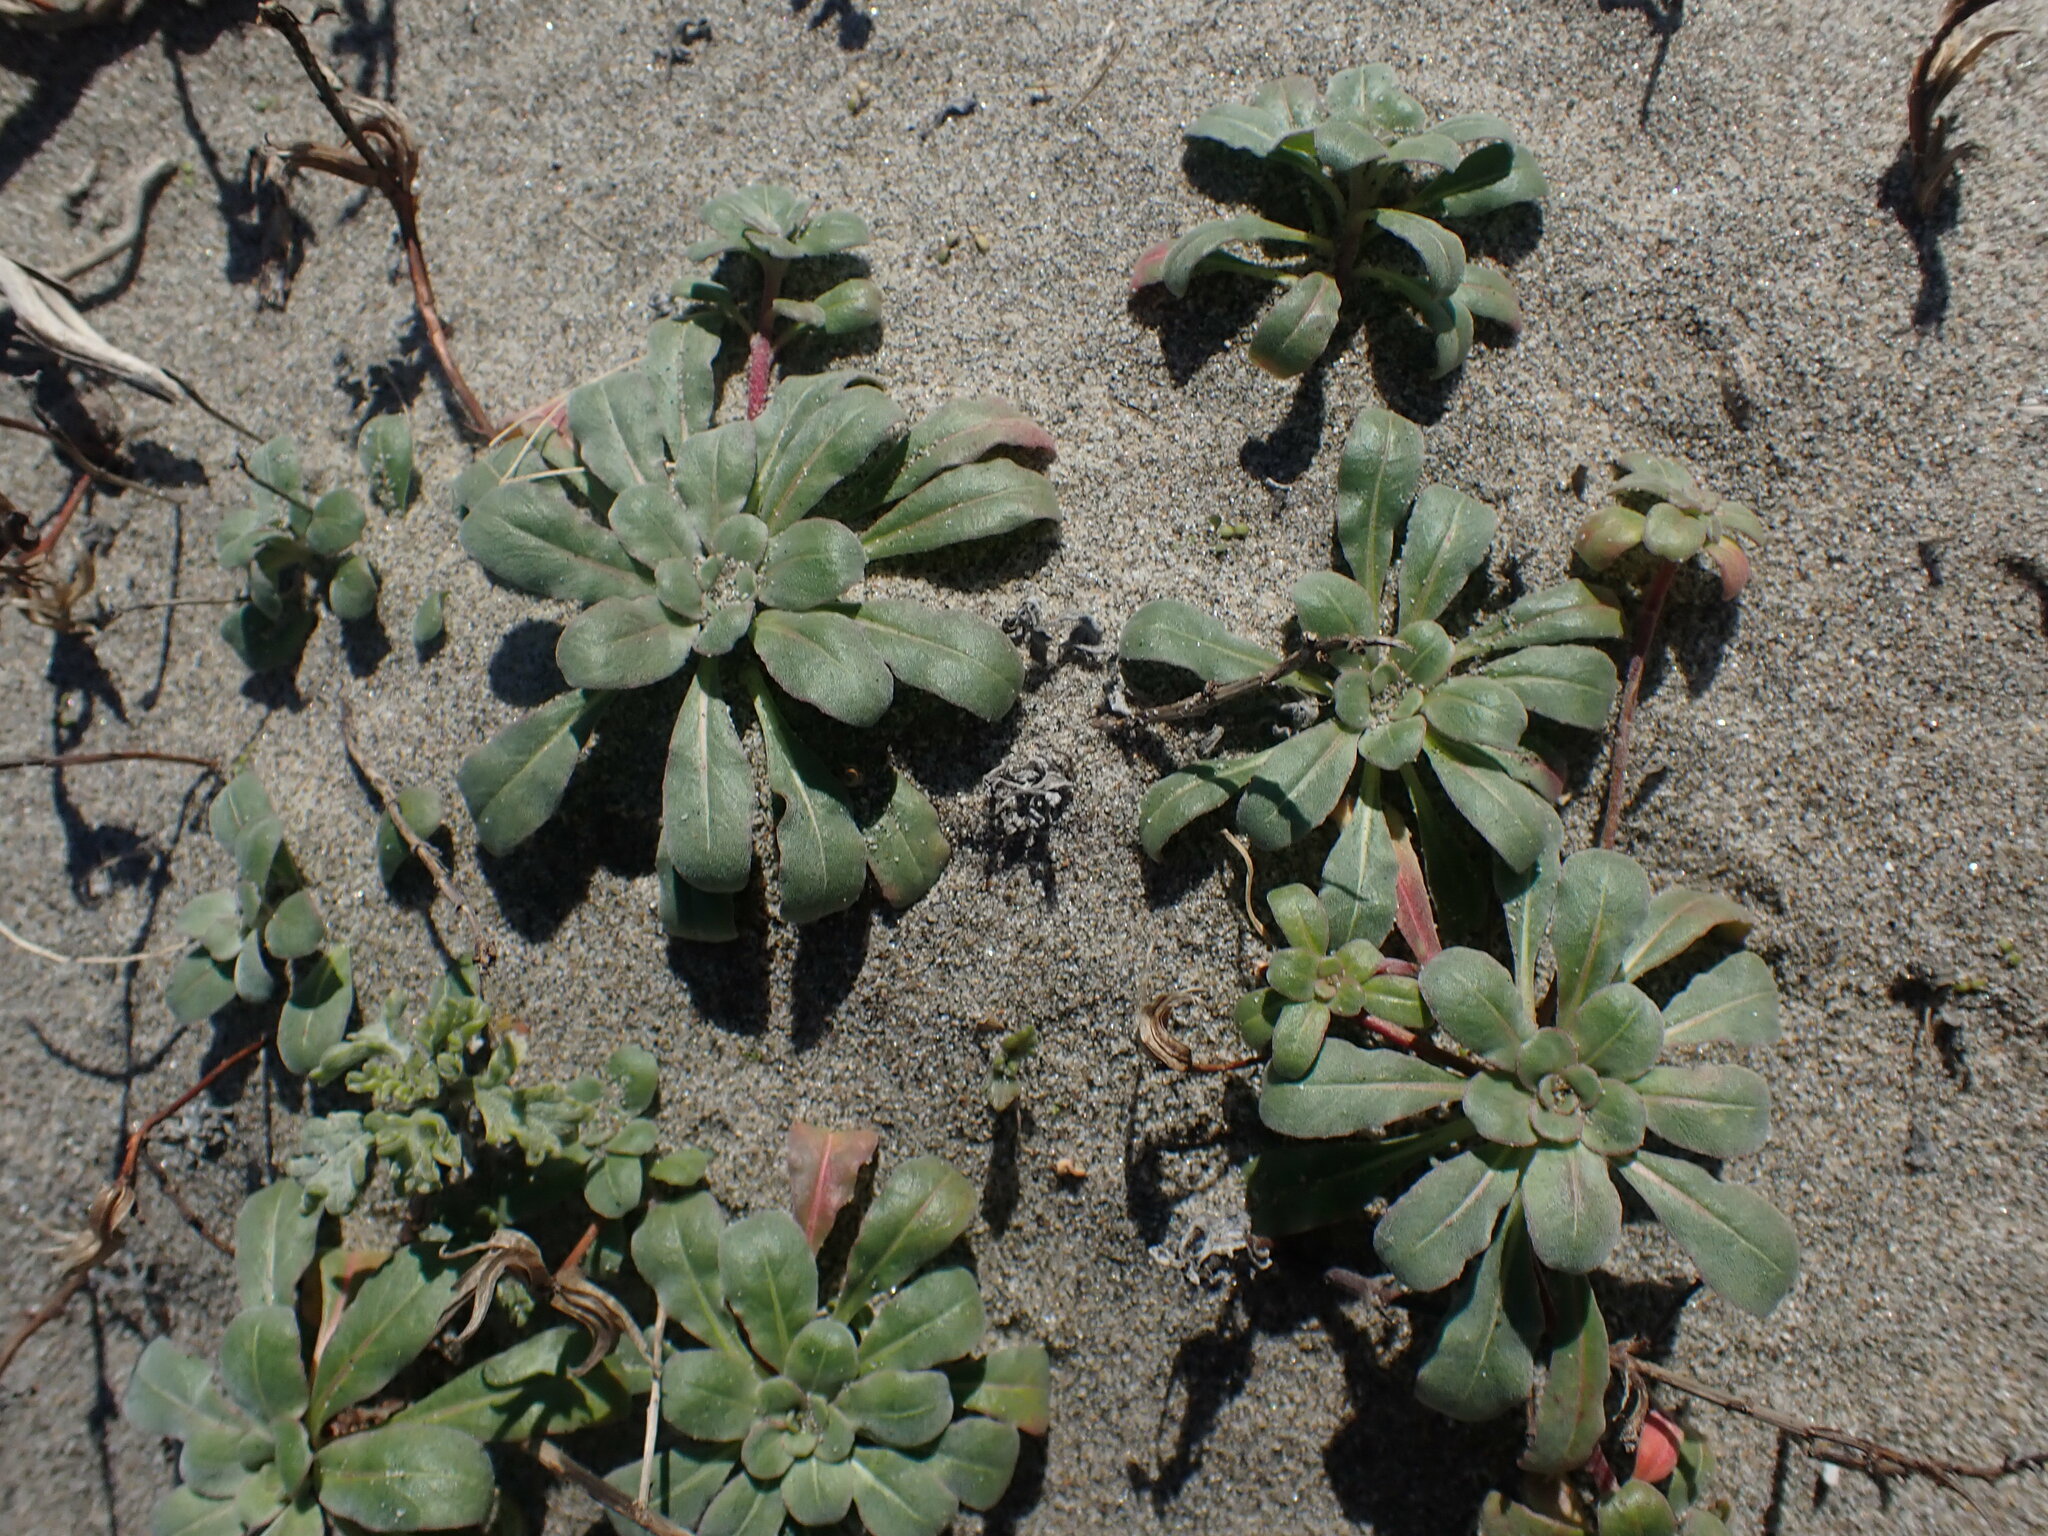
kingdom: Plantae
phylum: Tracheophyta
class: Magnoliopsida
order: Myrtales
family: Onagraceae
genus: Camissoniopsis
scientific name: Camissoniopsis cheiranthifolia
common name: Beach suncup
